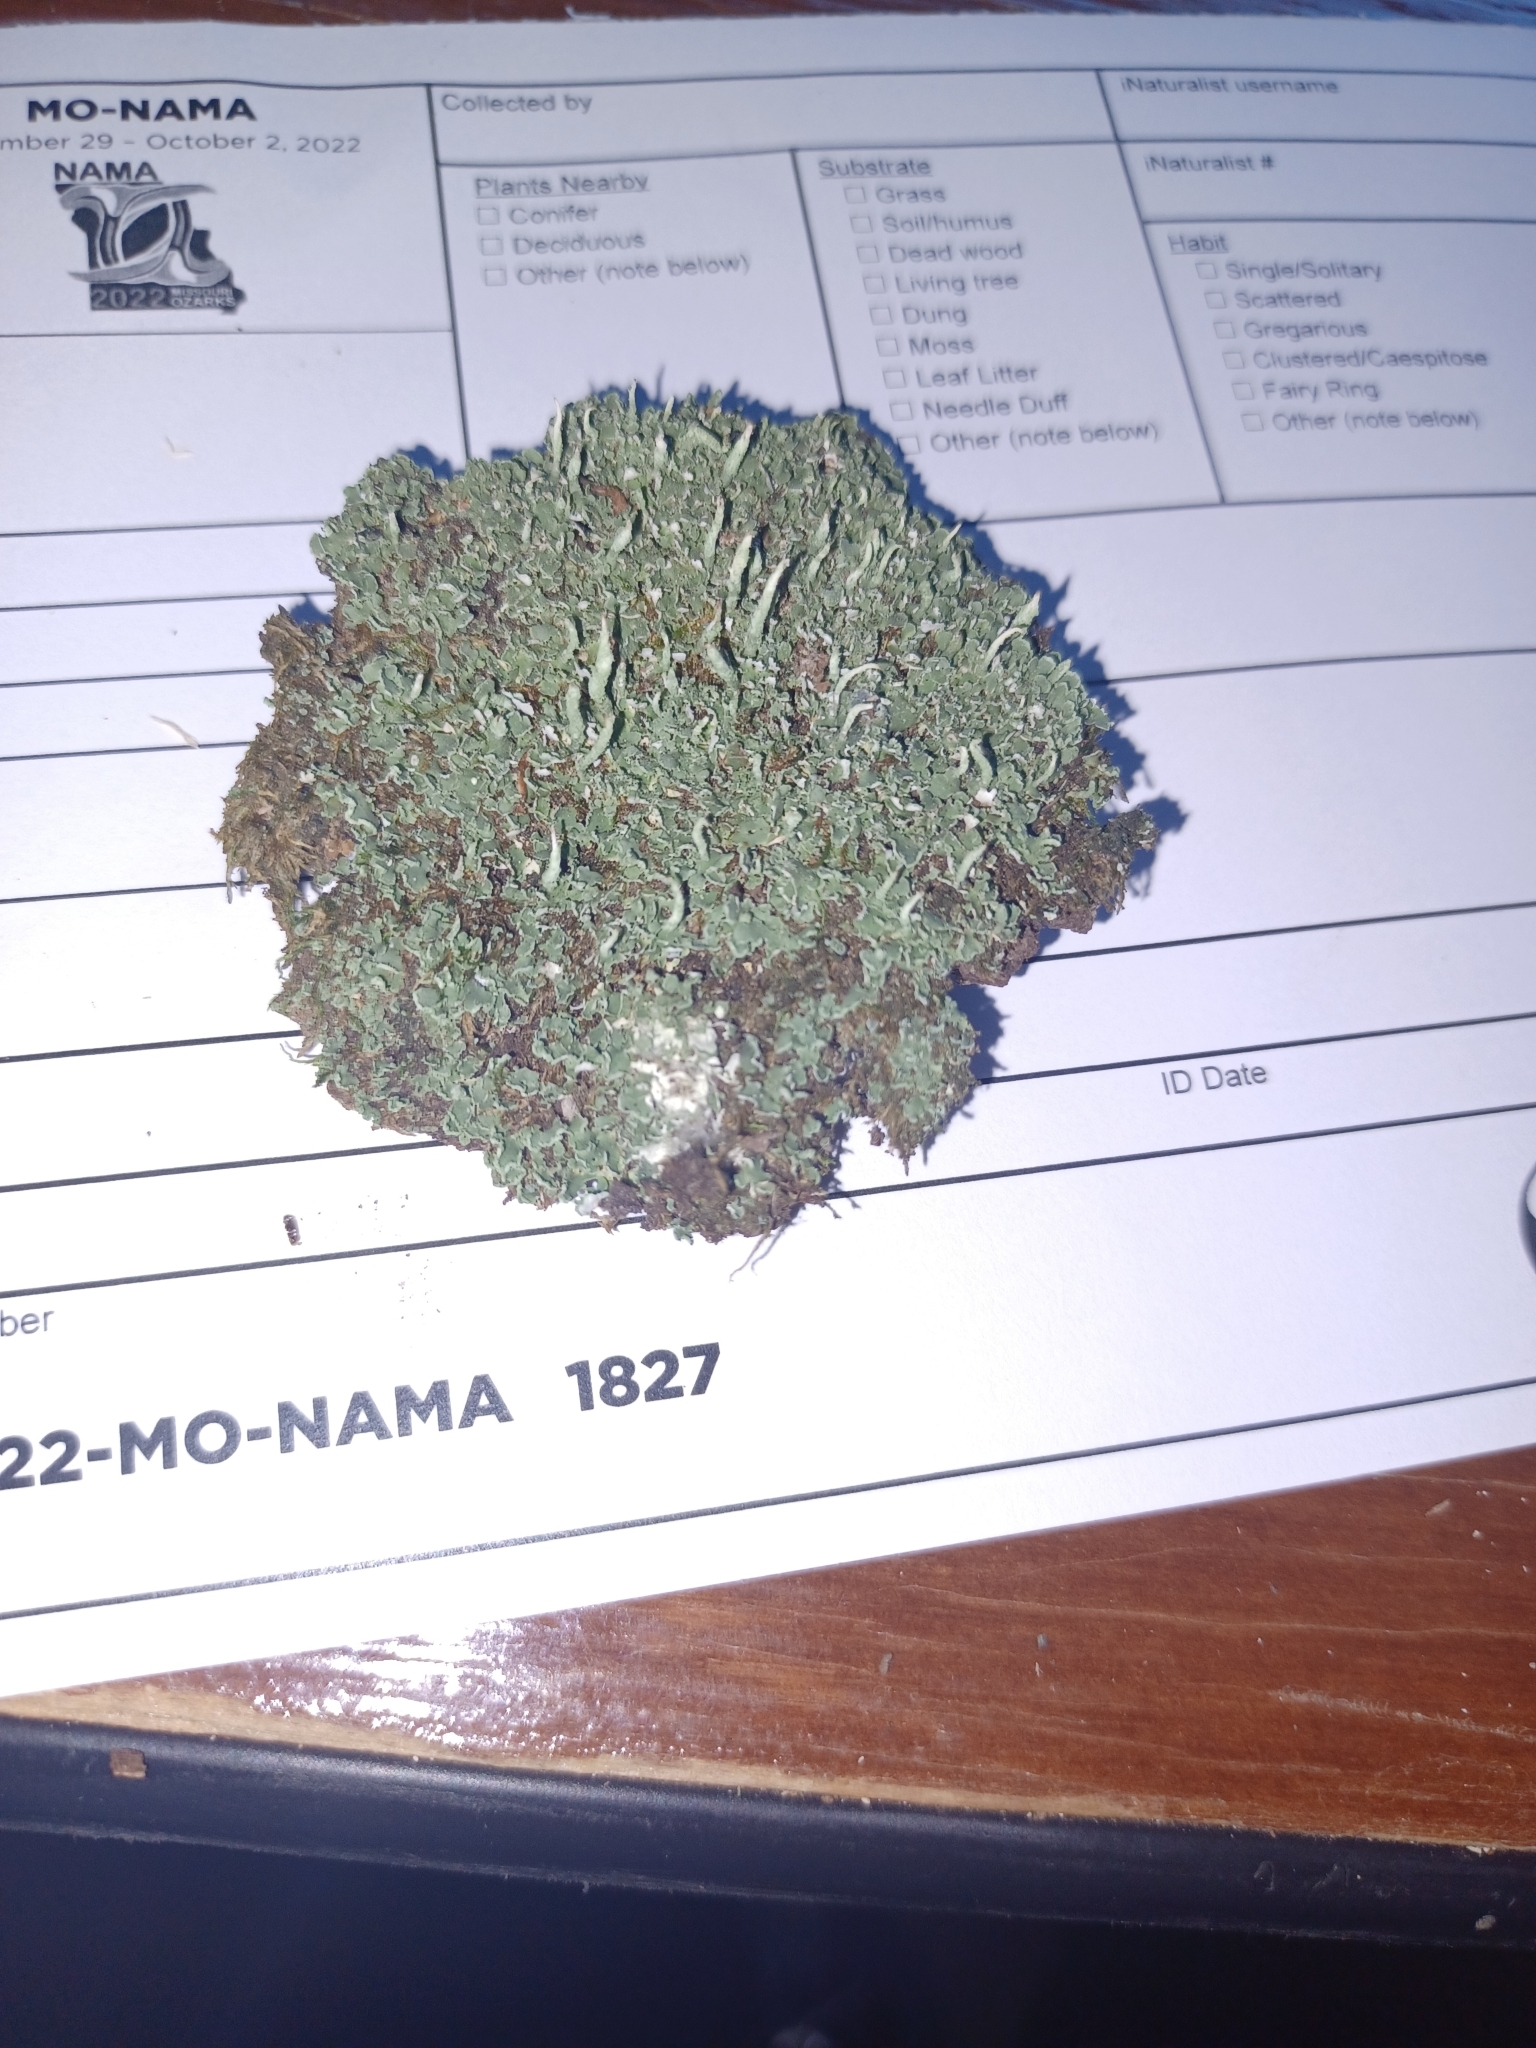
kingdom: Fungi
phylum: Ascomycota
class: Lecanoromycetes
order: Lecanorales
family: Cladoniaceae
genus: Cladonia
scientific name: Cladonia ochrochlora
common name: Smooth-footed powderhorn
